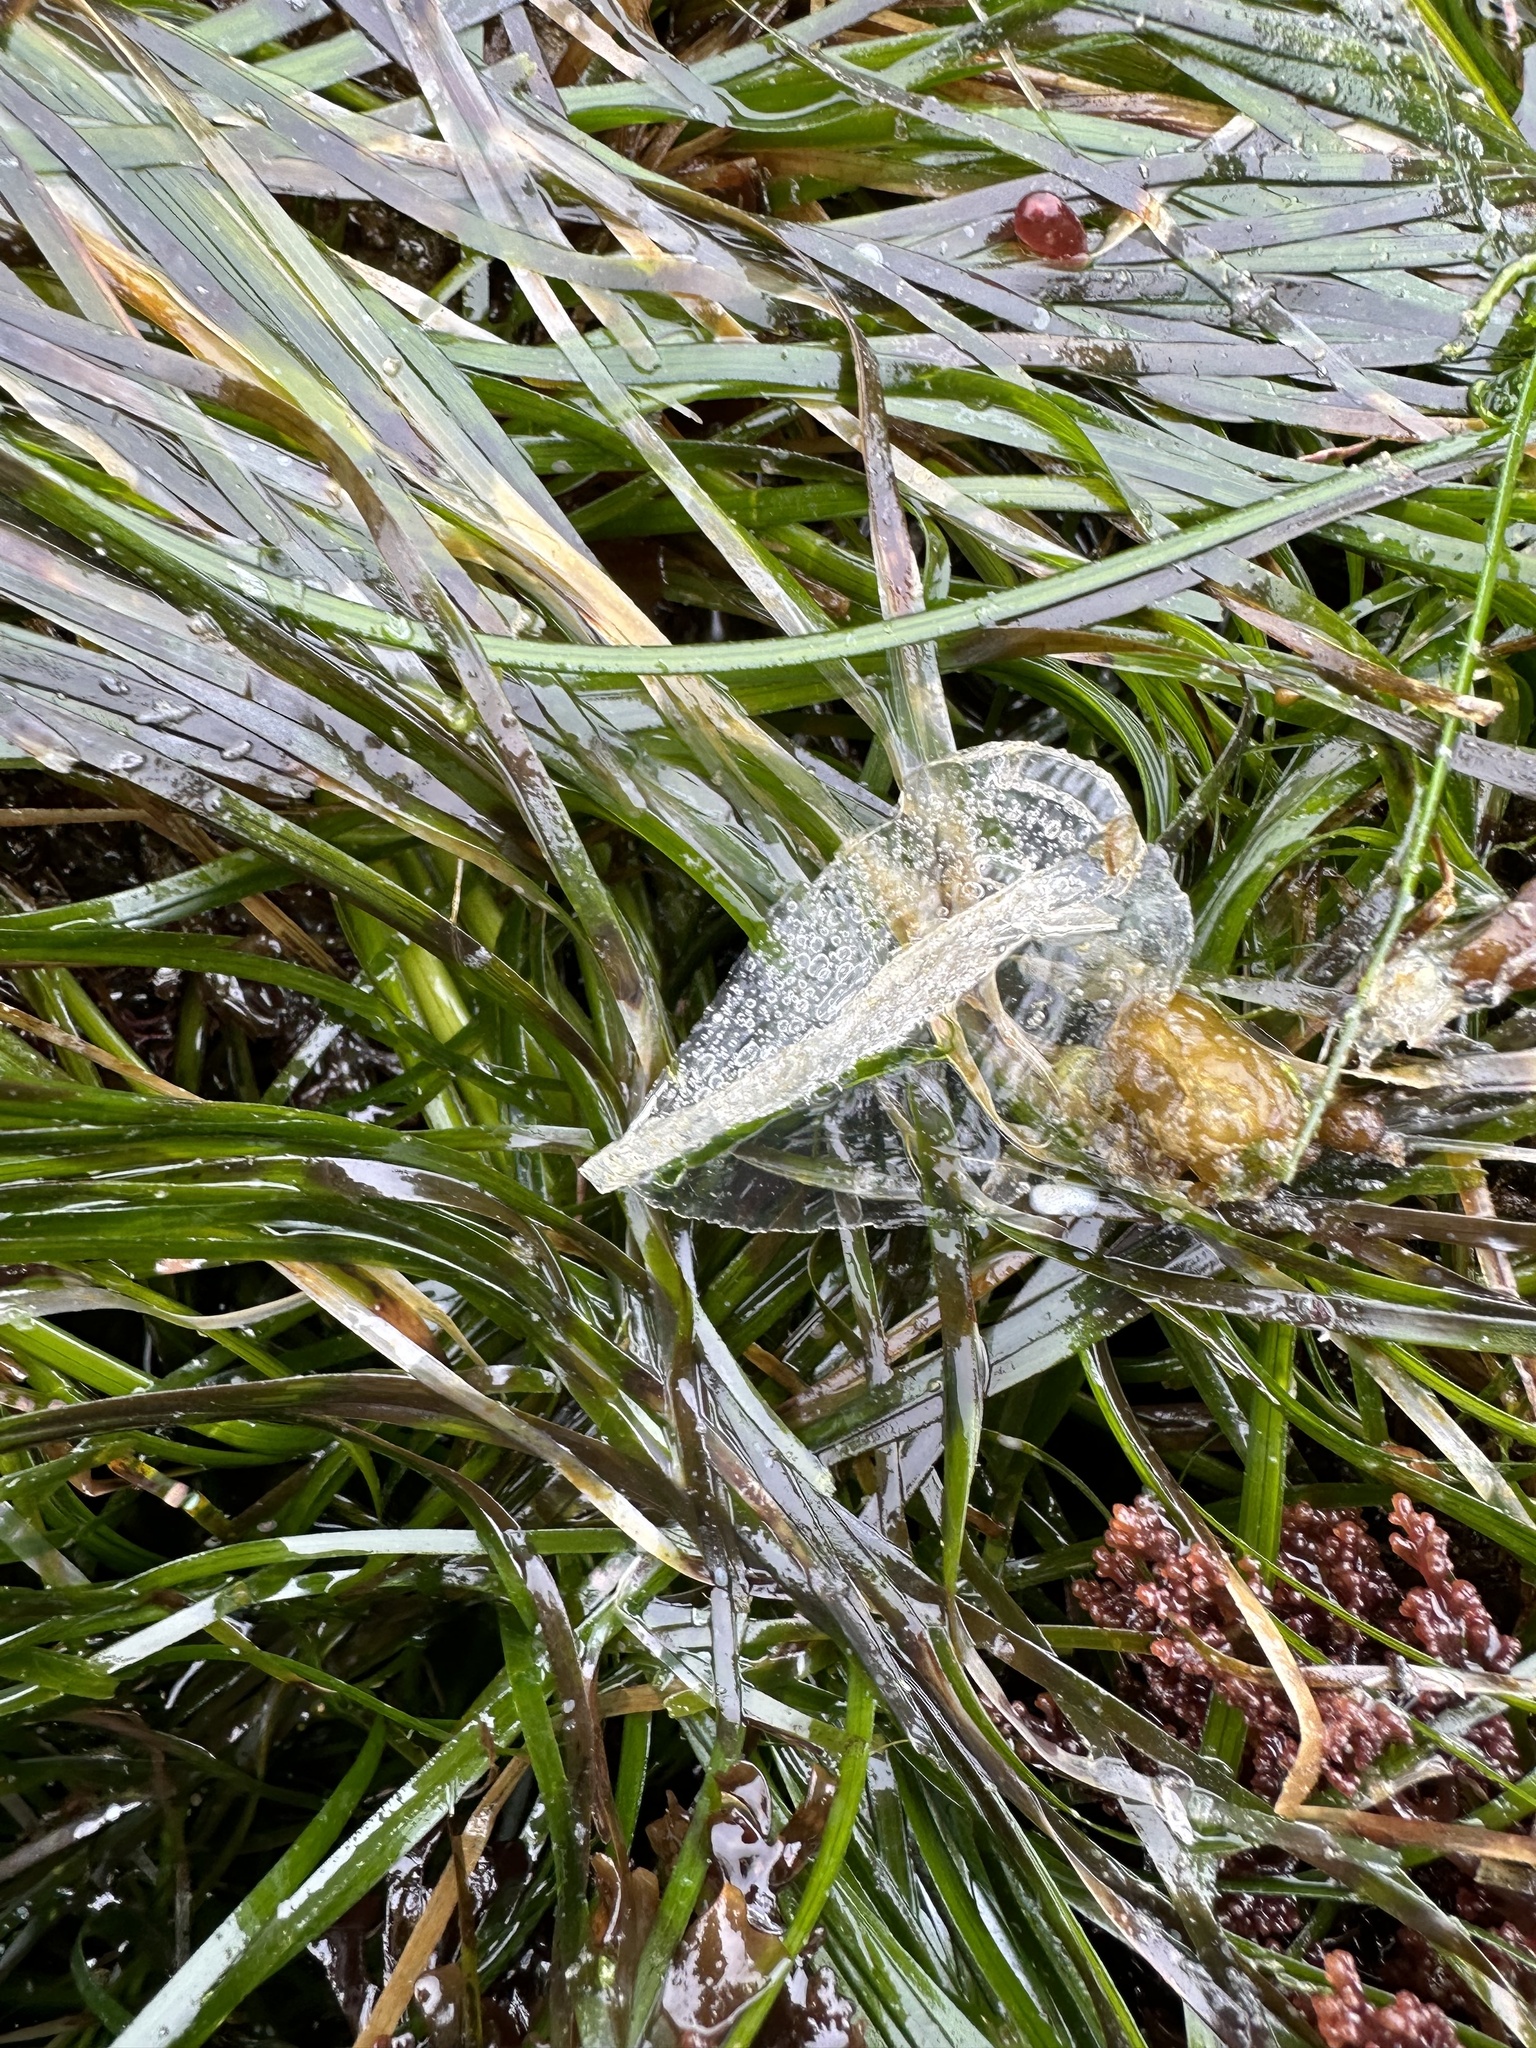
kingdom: Animalia
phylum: Cnidaria
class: Hydrozoa
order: Anthoathecata
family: Porpitidae
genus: Velella
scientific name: Velella velella
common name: By-the-wind-sailor
